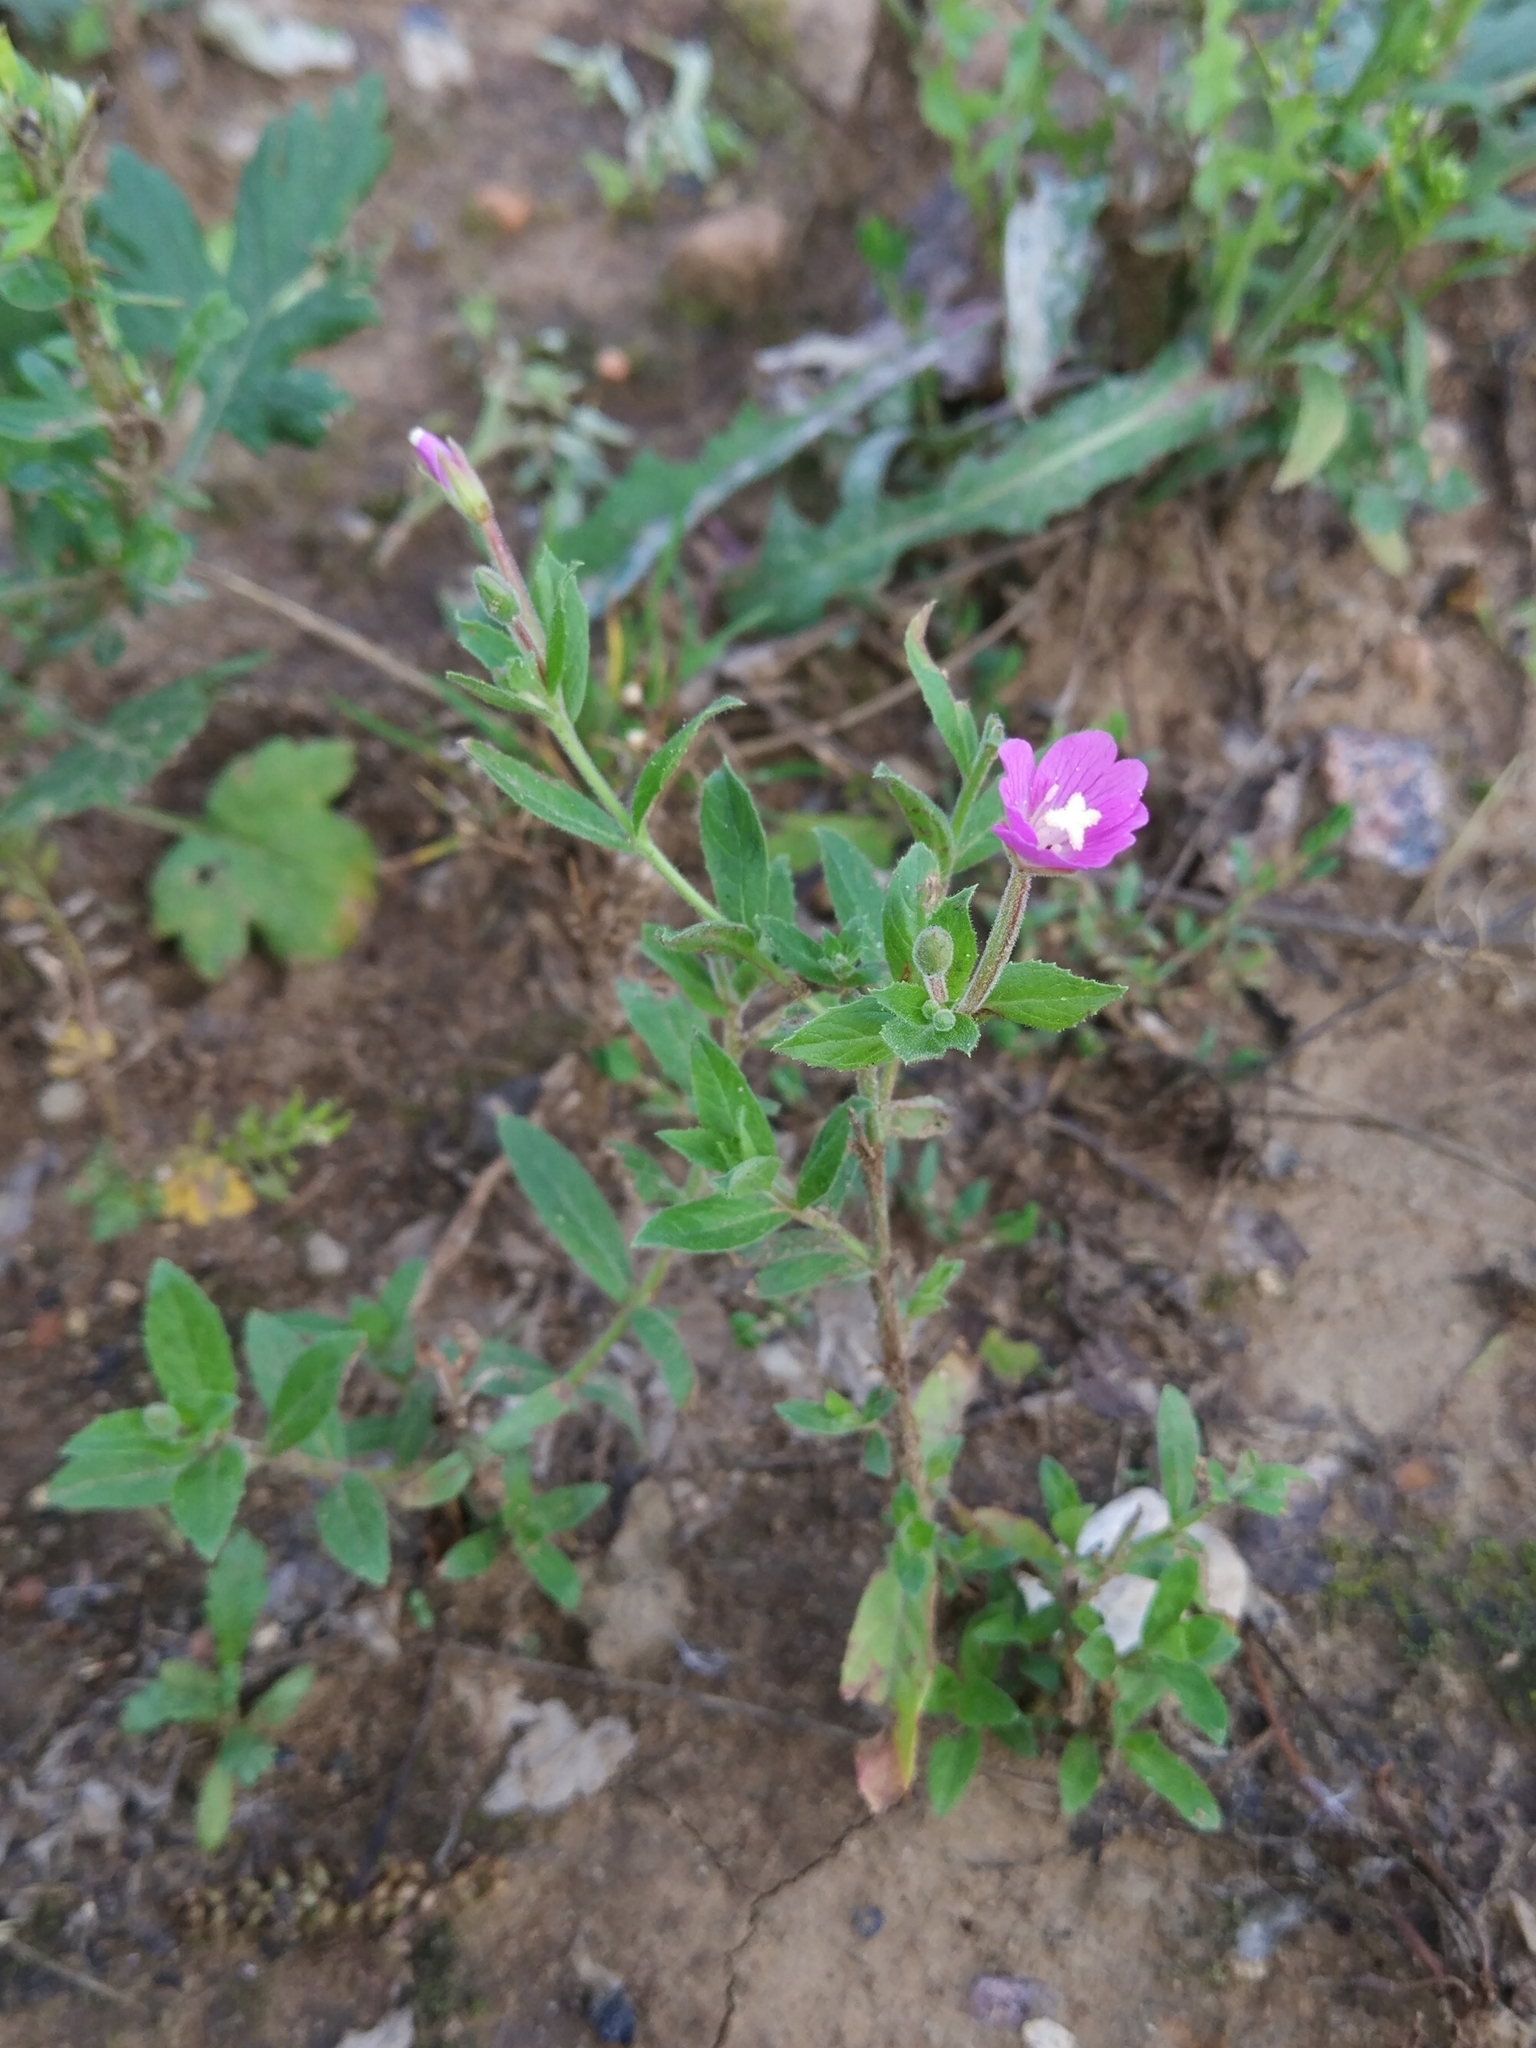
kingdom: Plantae
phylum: Tracheophyta
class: Magnoliopsida
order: Myrtales
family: Onagraceae
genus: Epilobium
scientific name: Epilobium hirsutum
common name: Great willowherb
